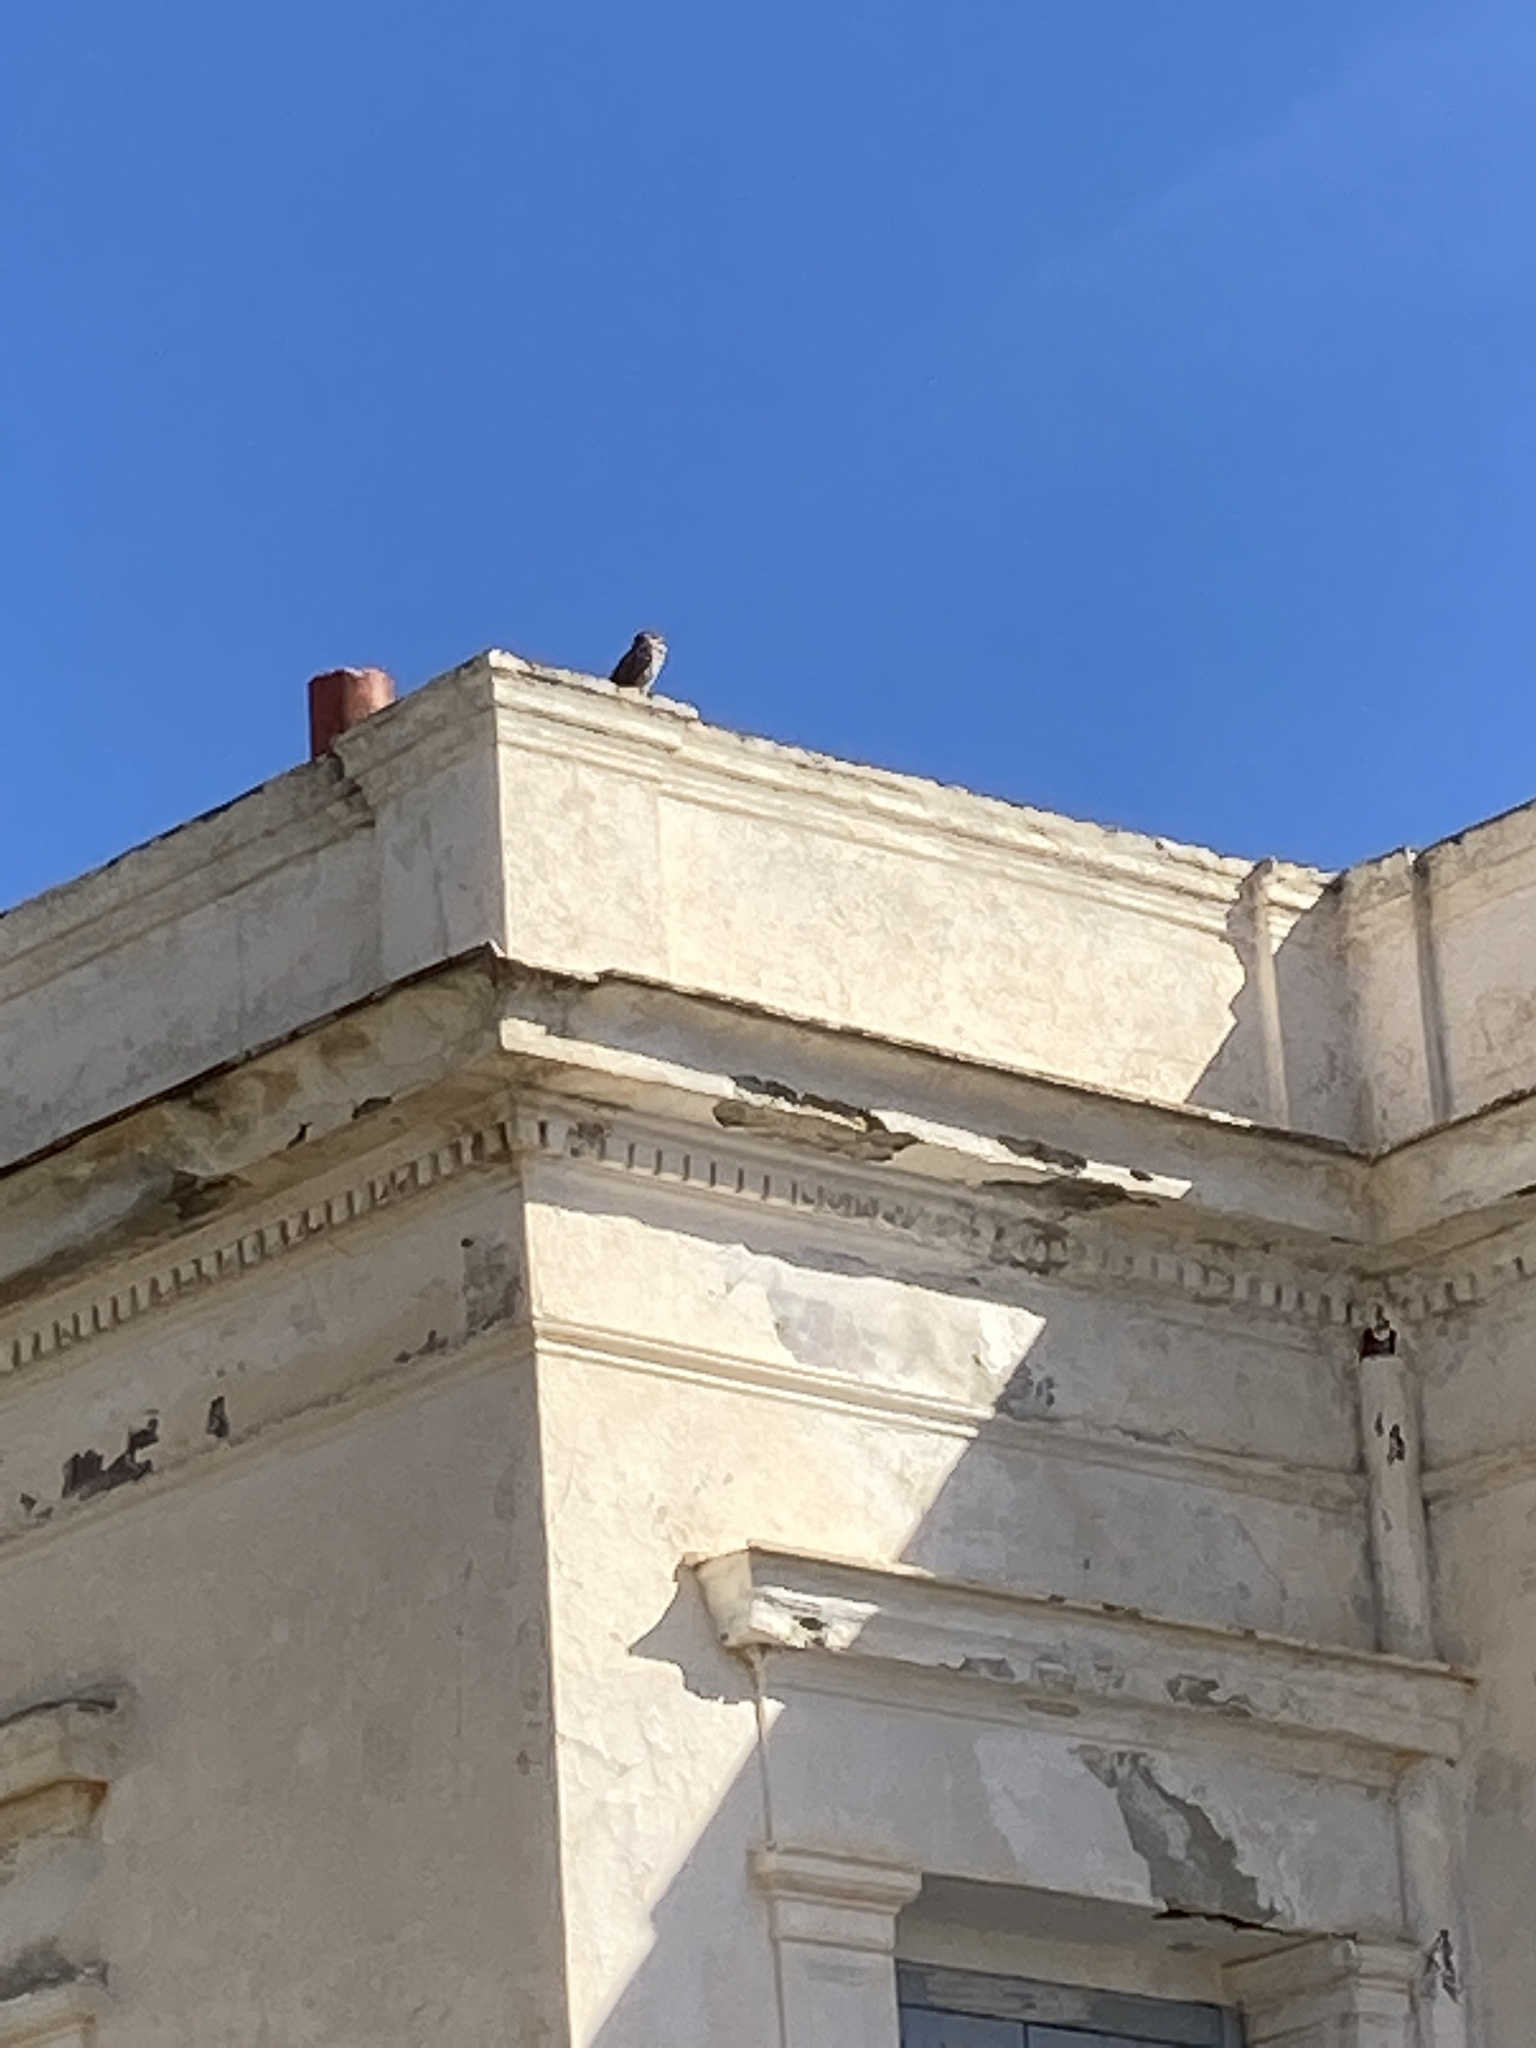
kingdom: Animalia
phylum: Chordata
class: Aves
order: Strigiformes
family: Strigidae
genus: Athene
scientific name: Athene noctua
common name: Little owl
